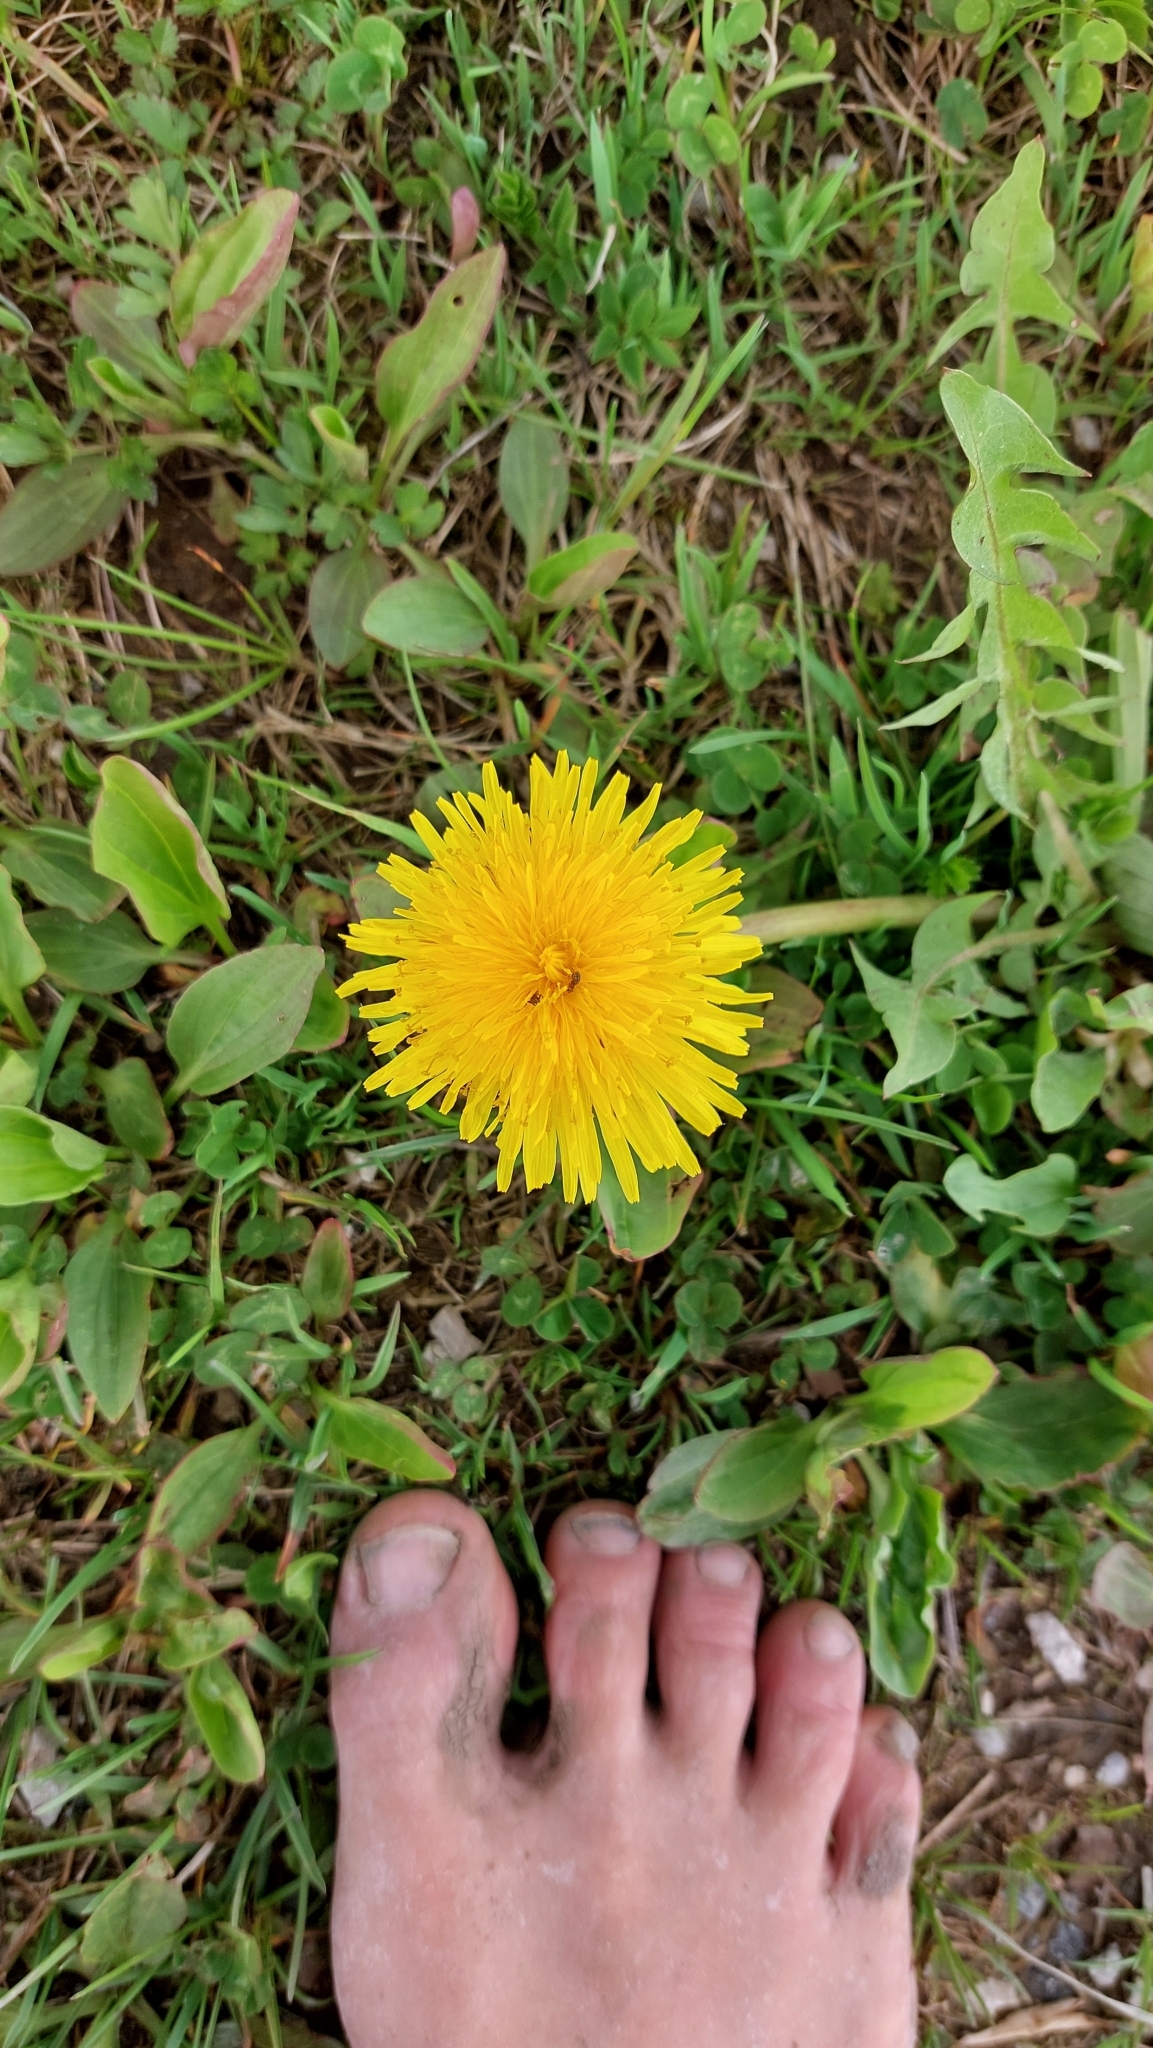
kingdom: Plantae
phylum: Tracheophyta
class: Magnoliopsida
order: Asterales
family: Asteraceae
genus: Taraxacum
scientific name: Taraxacum
